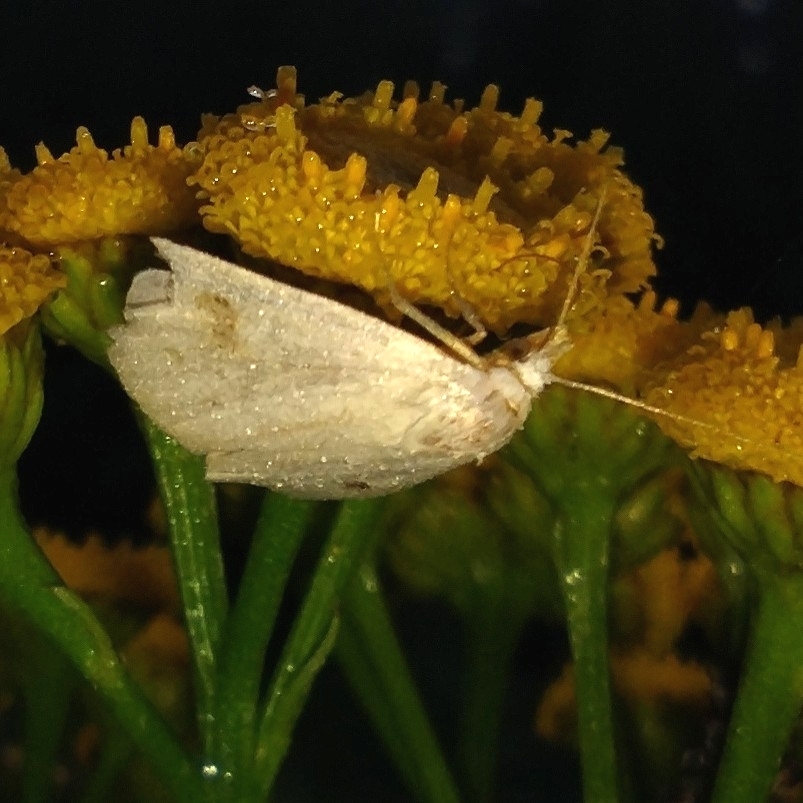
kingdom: Animalia
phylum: Arthropoda
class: Insecta
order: Lepidoptera
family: Erebidae
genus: Rivula
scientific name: Rivula sericealis
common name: Straw dot
